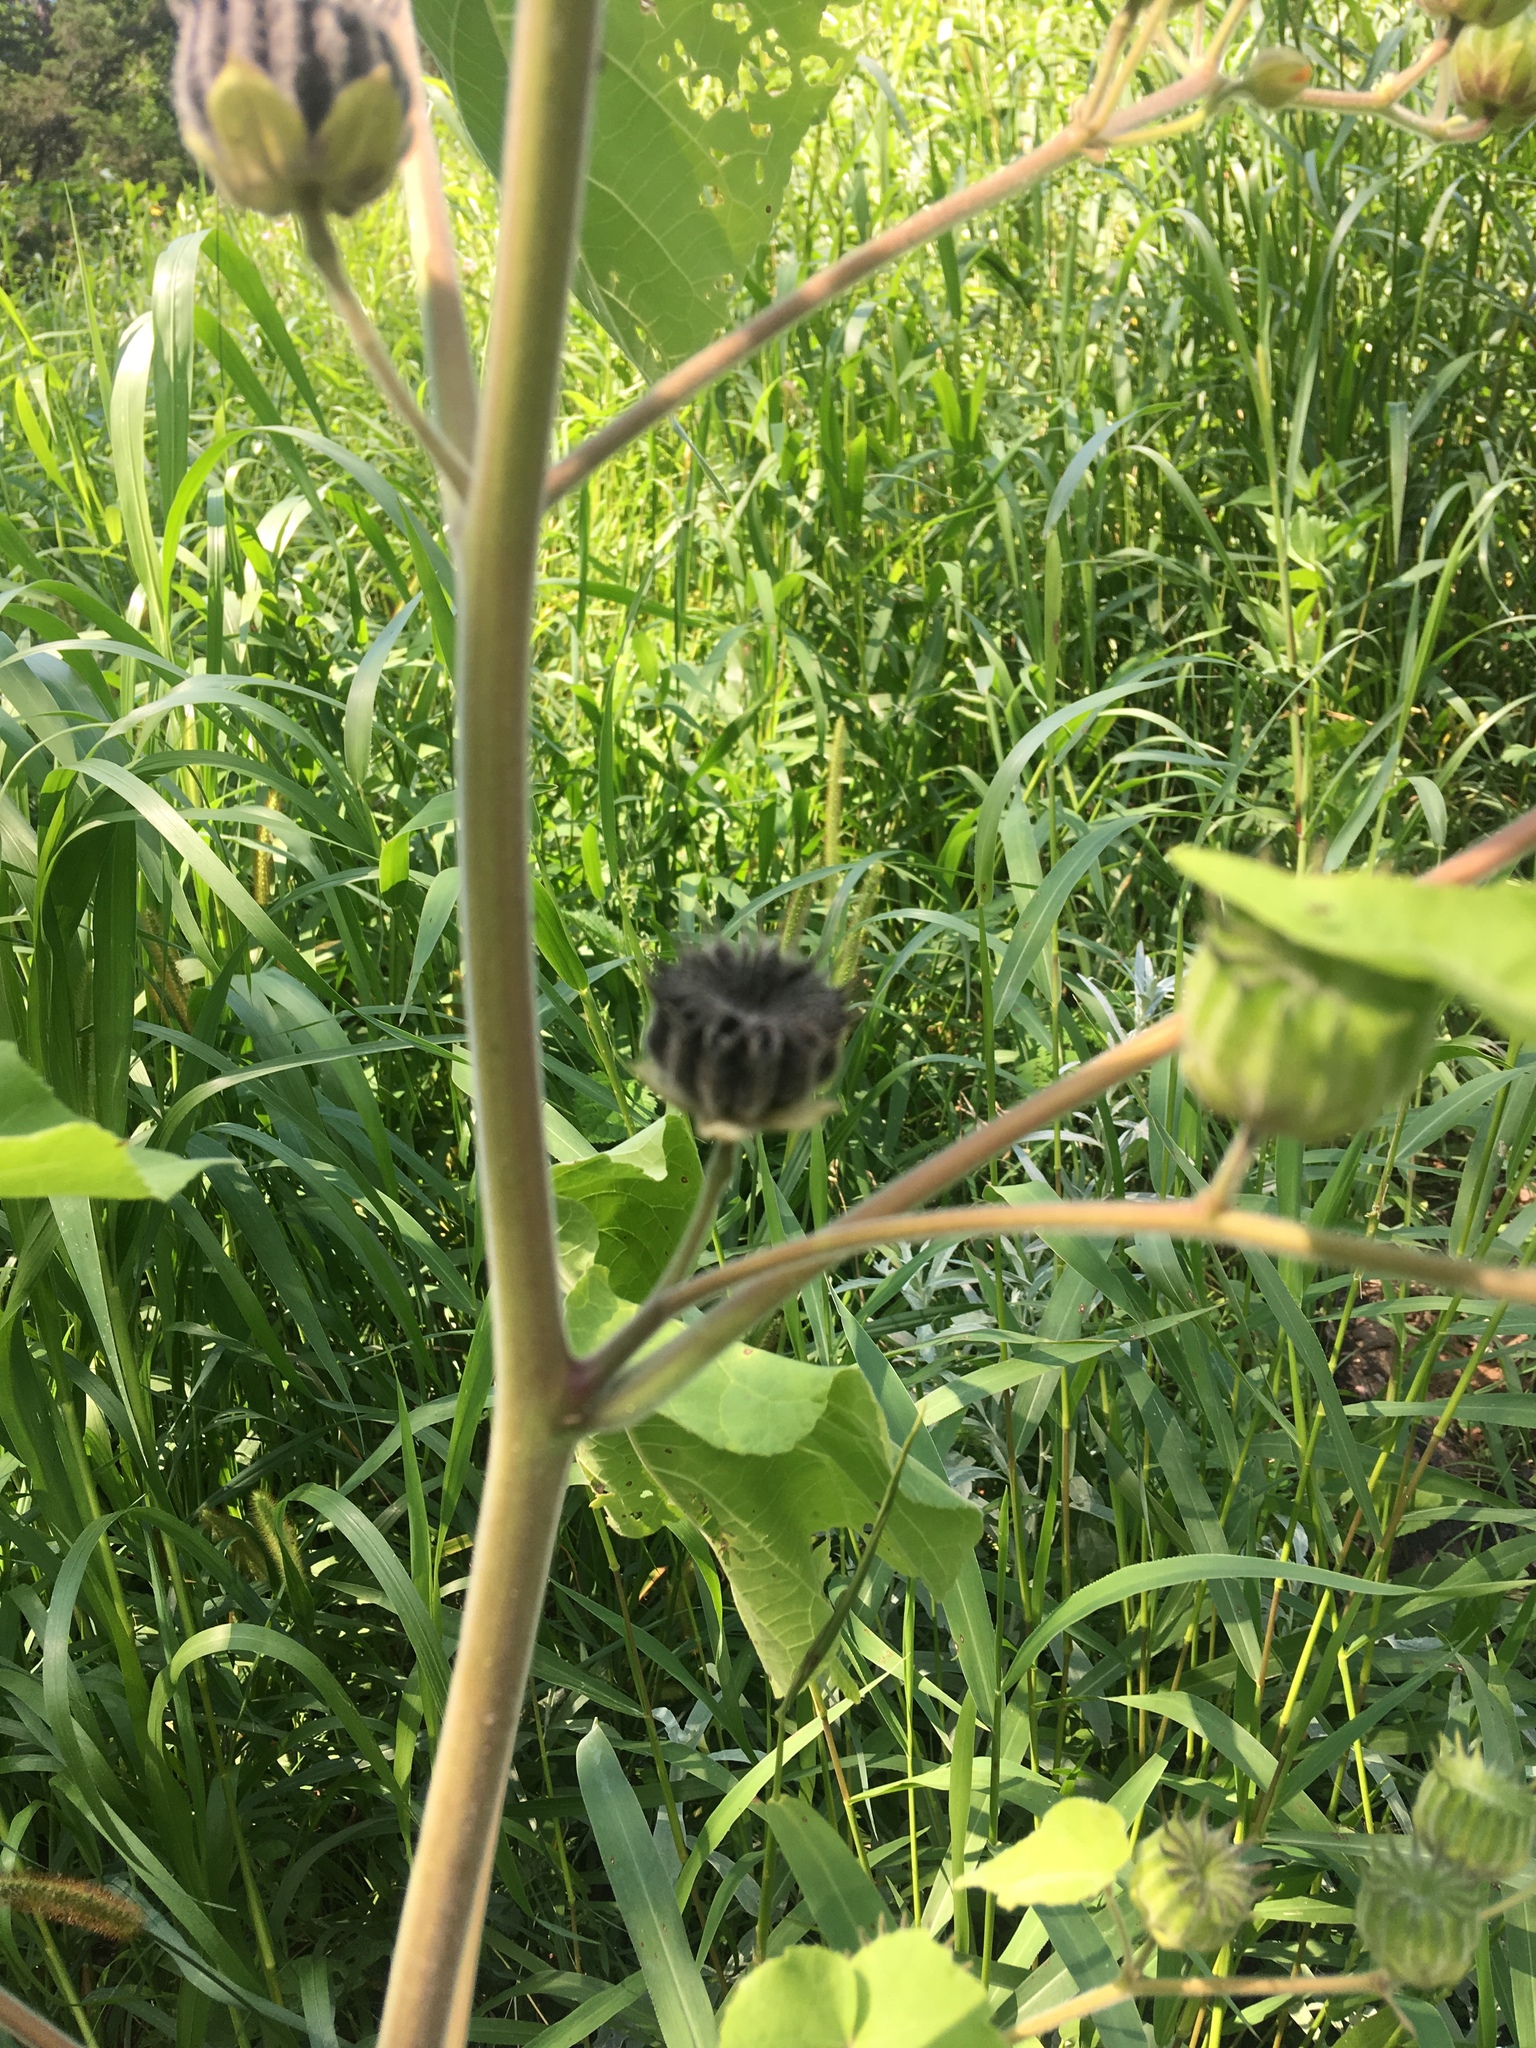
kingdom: Plantae
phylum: Tracheophyta
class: Magnoliopsida
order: Malvales
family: Malvaceae
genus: Abutilon
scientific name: Abutilon theophrasti
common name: Velvetleaf
